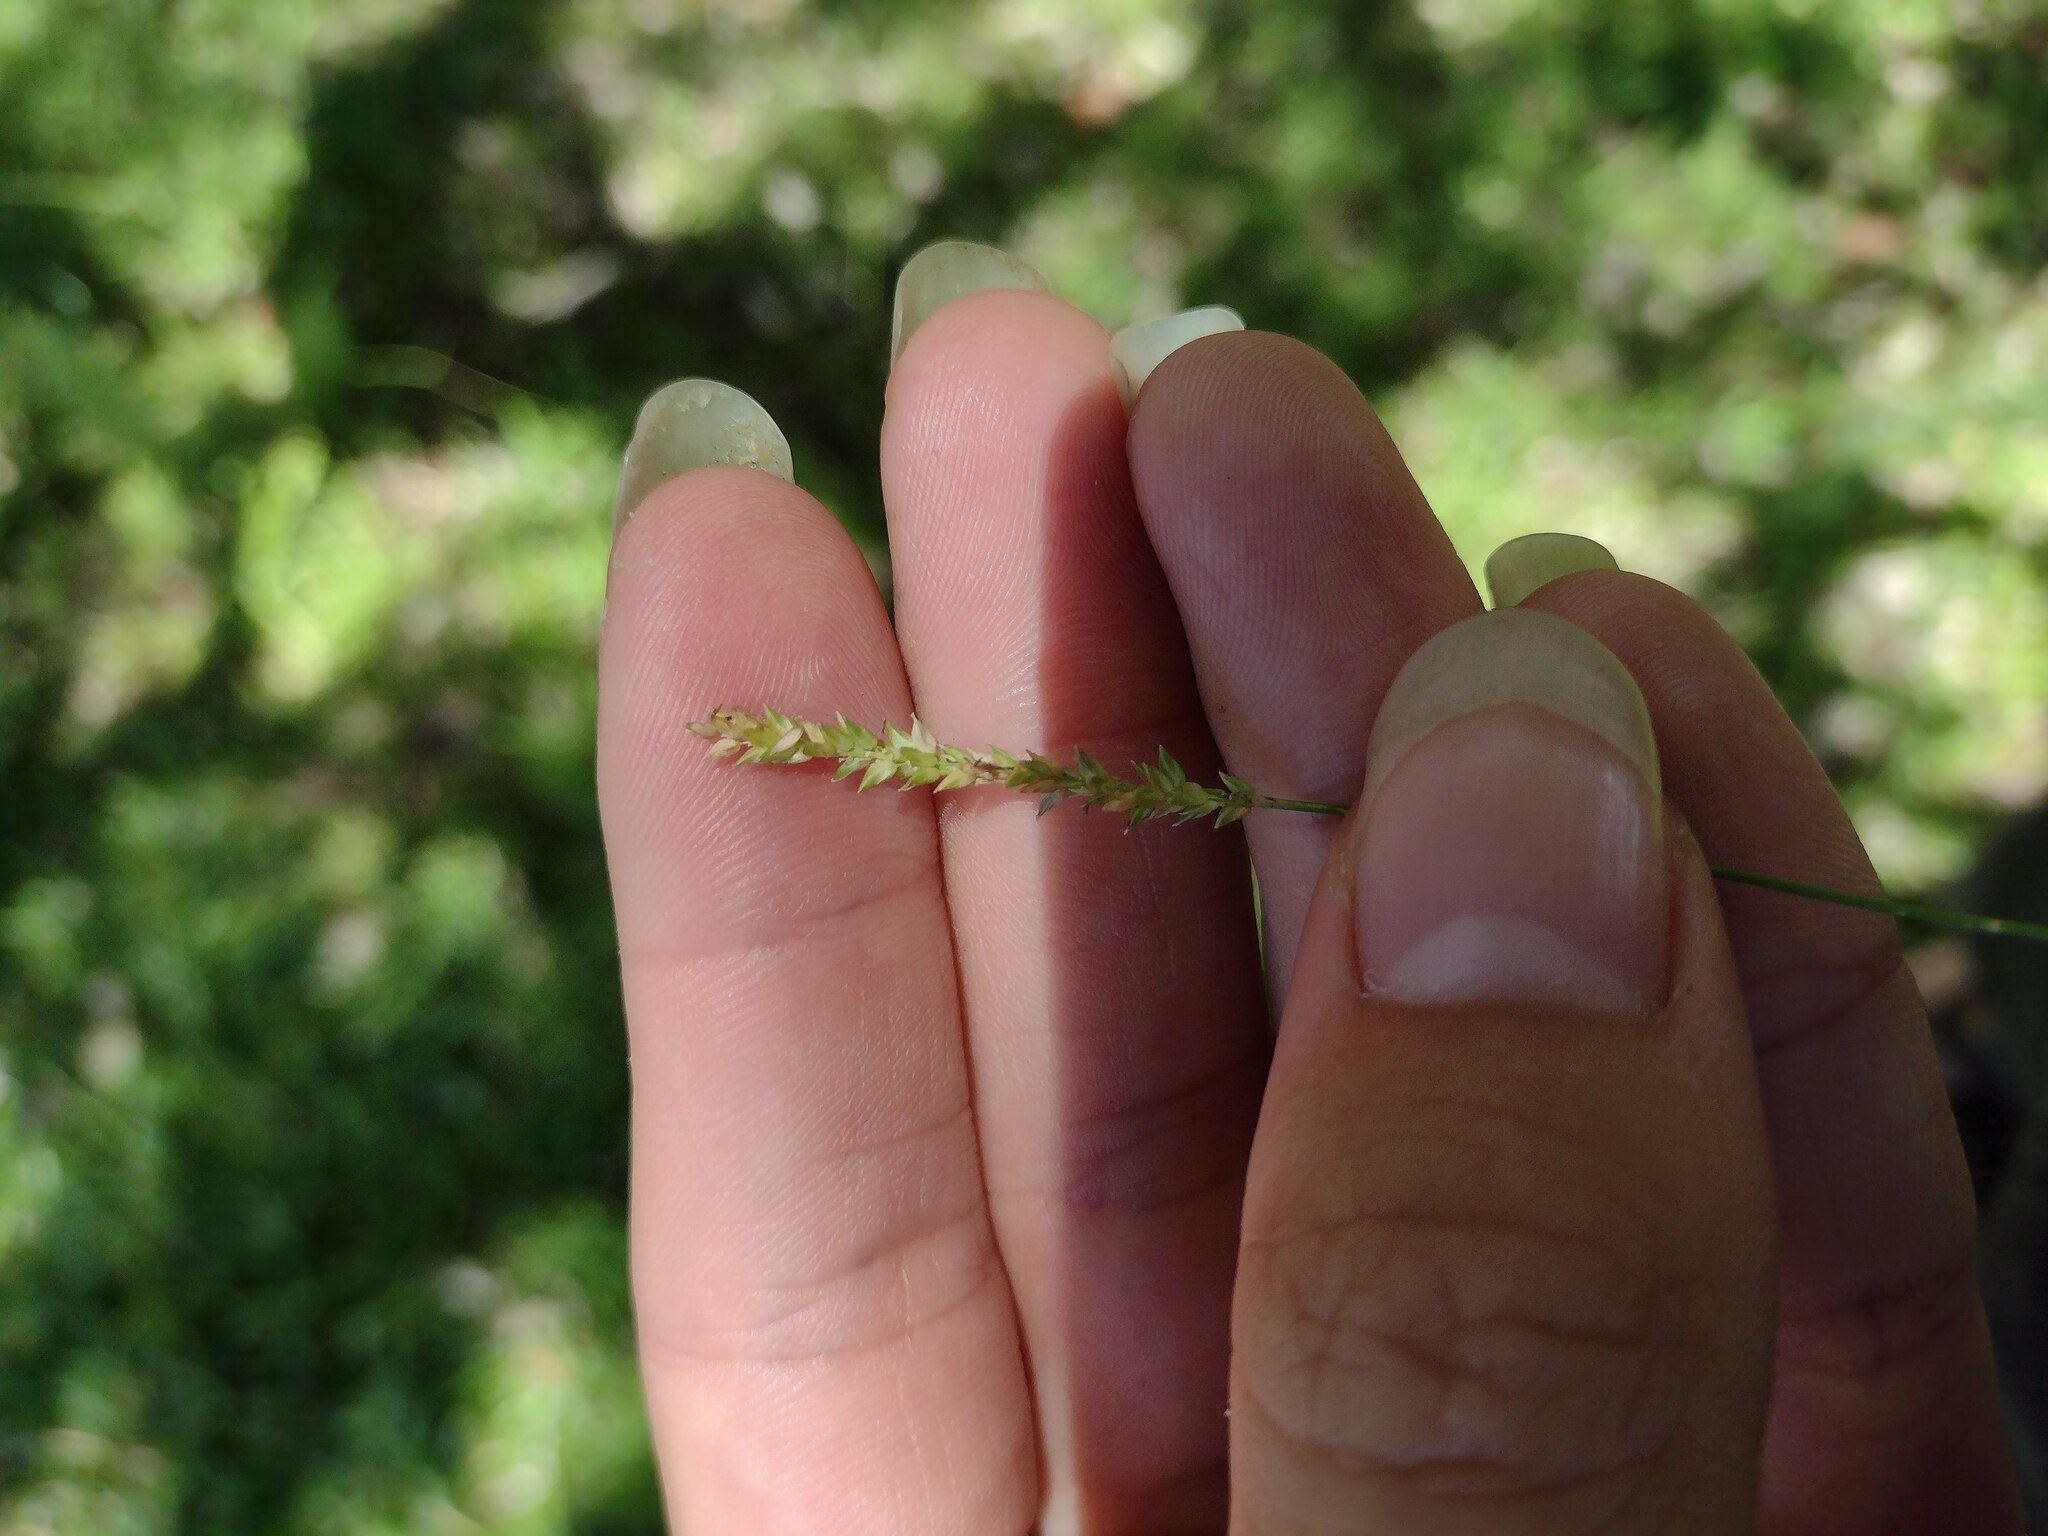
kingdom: Plantae
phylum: Tracheophyta
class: Liliopsida
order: Poales
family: Poaceae
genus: Sacciolepis
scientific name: Sacciolepis indica
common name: Glenwoodgrass
